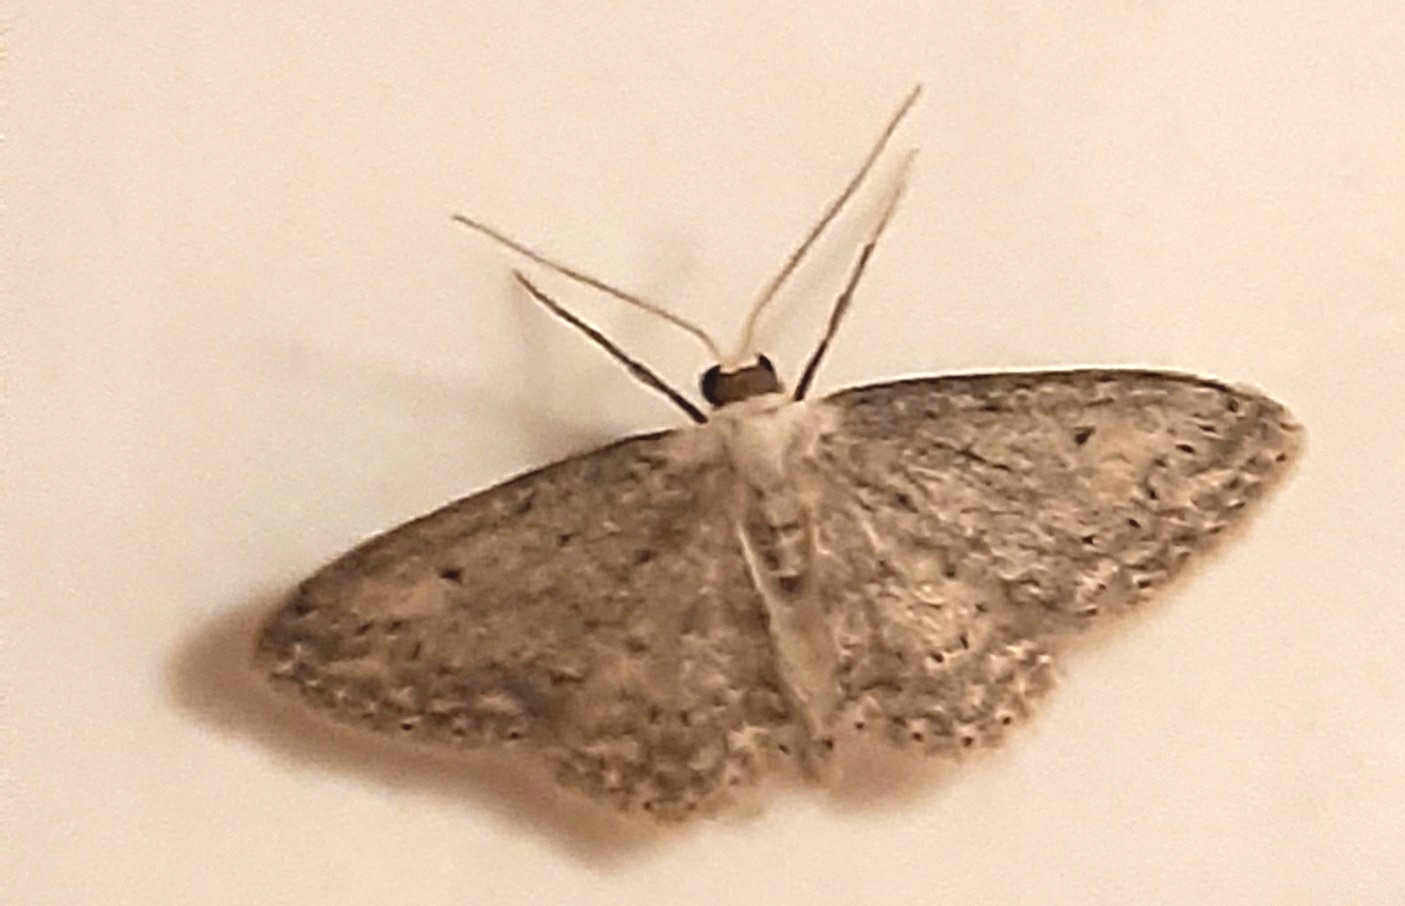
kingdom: Animalia
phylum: Arthropoda
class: Insecta
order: Lepidoptera
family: Geometridae
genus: Idaea
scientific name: Idaea seriata
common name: Small dusty wave
